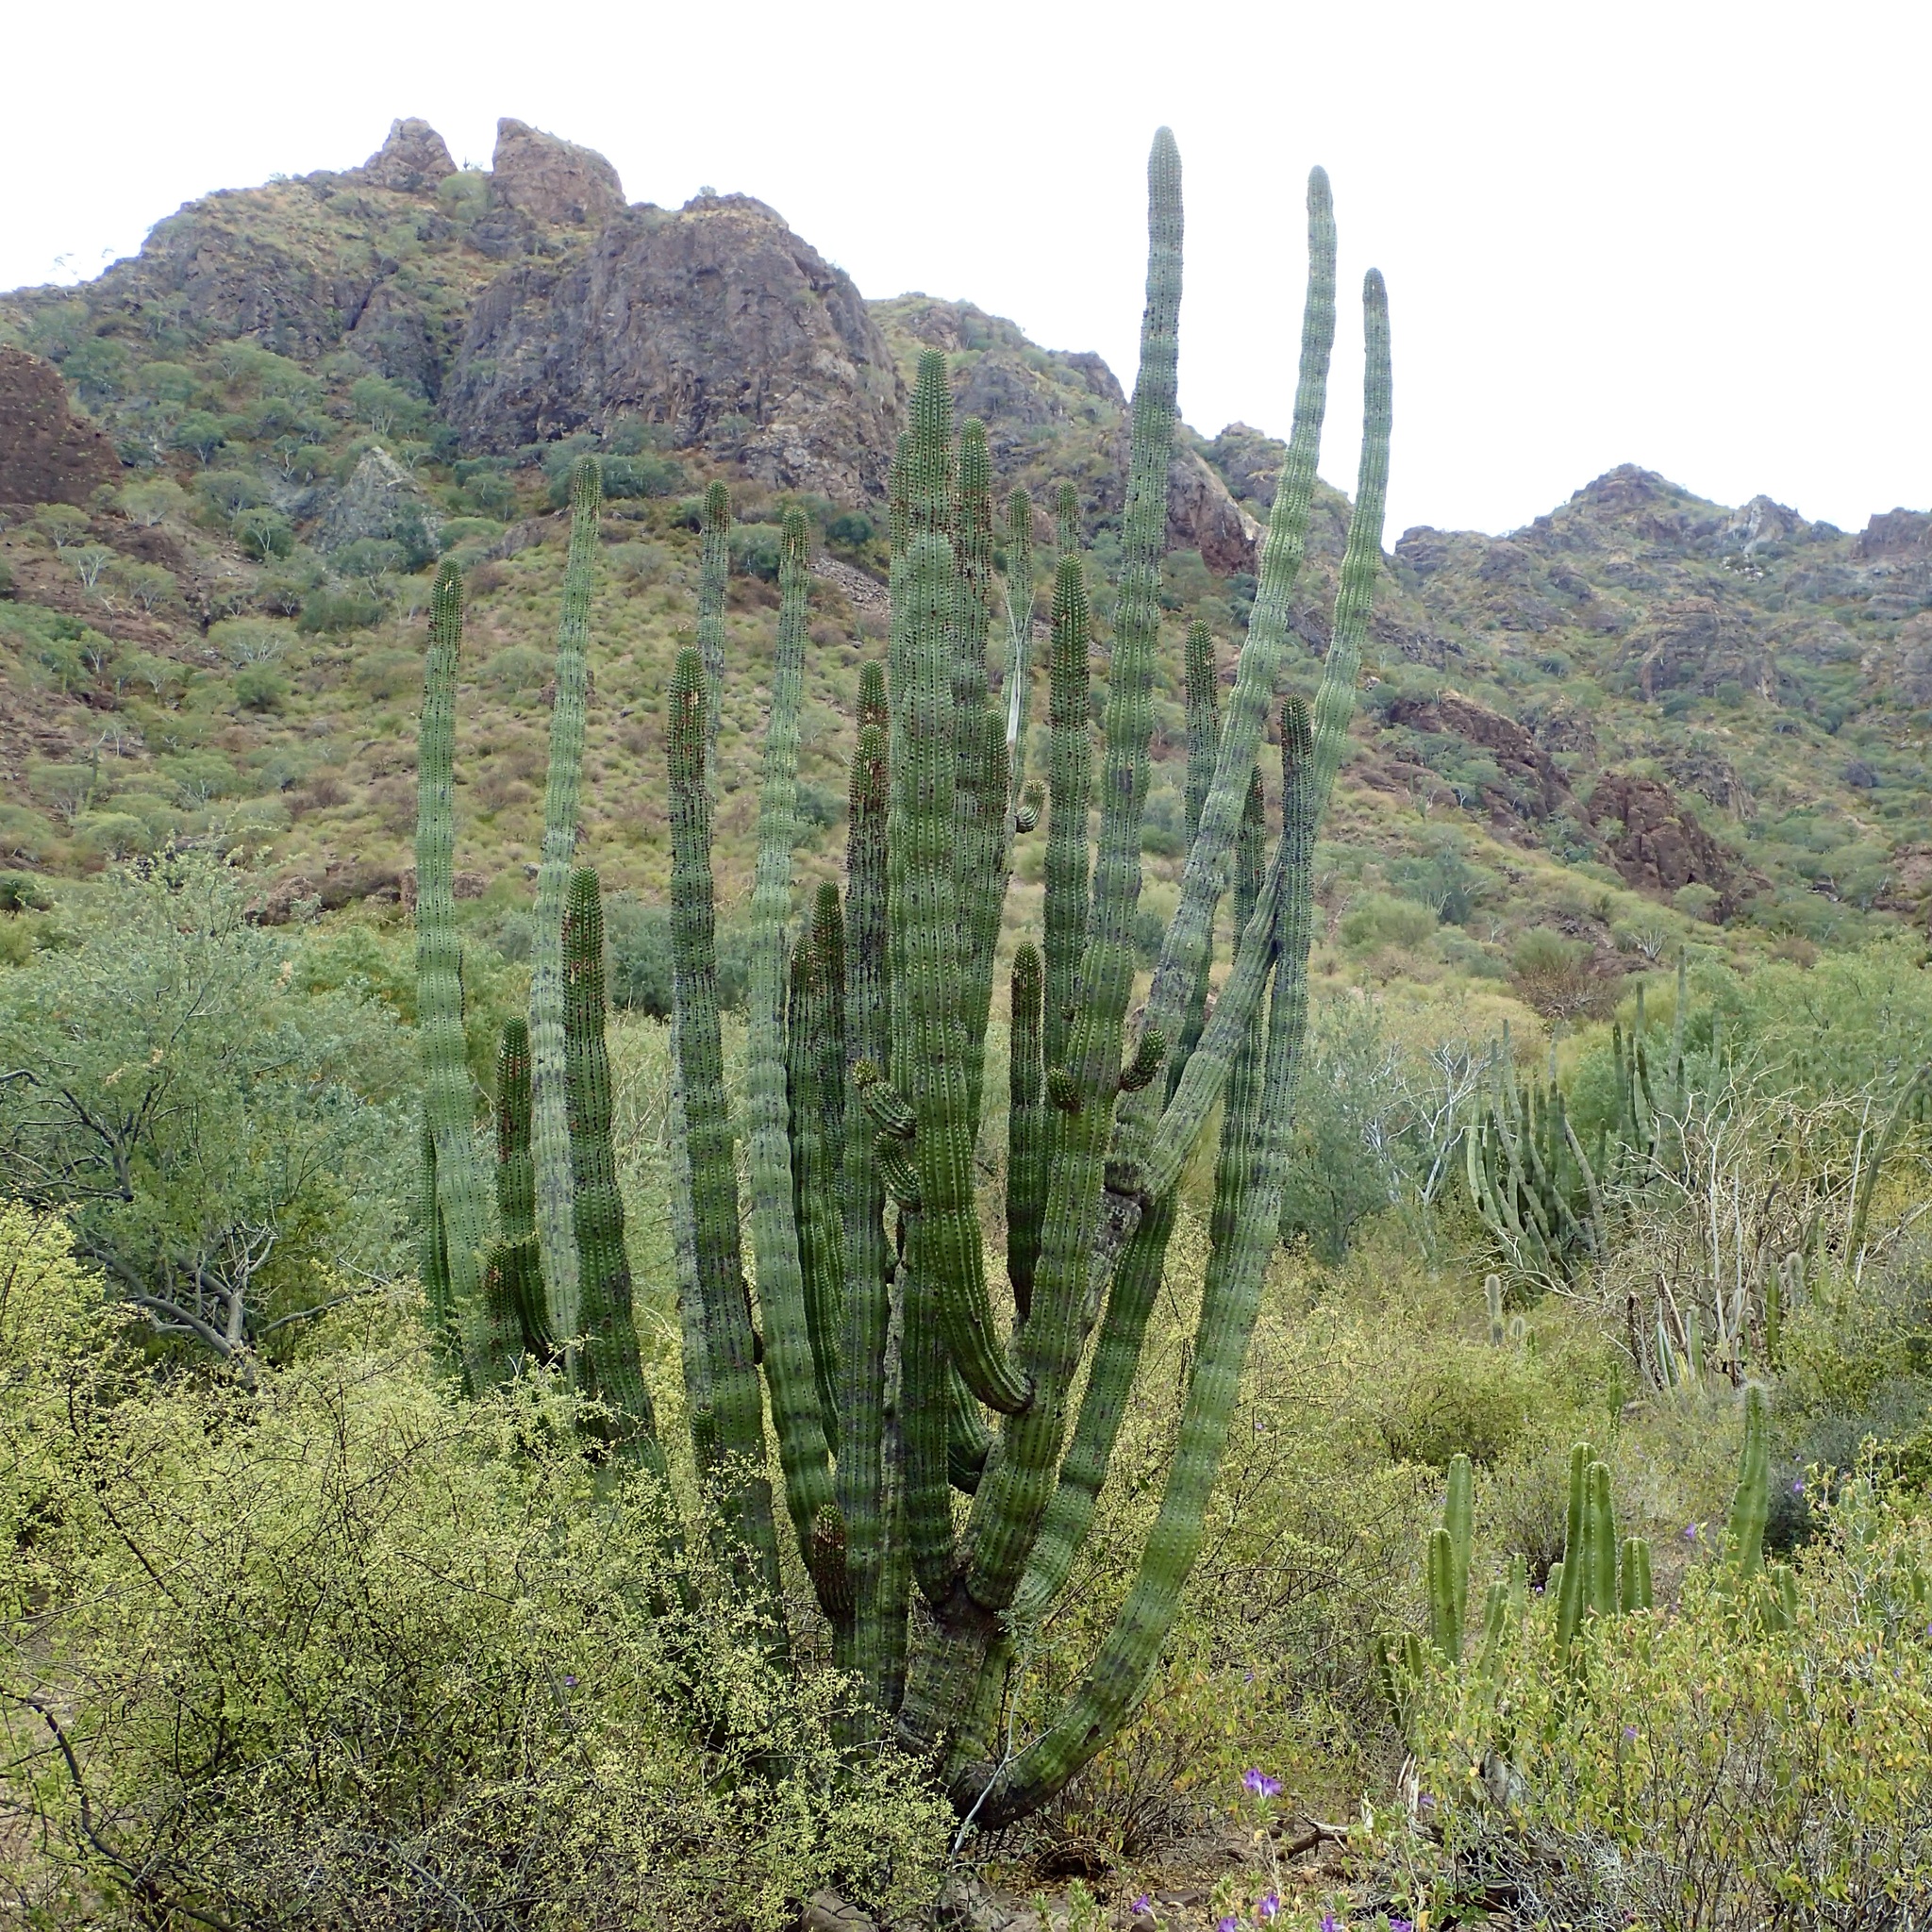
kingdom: Plantae
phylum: Tracheophyta
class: Magnoliopsida
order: Caryophyllales
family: Cactaceae
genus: Stenocereus
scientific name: Stenocereus thurberi
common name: Organ pipe cactus
